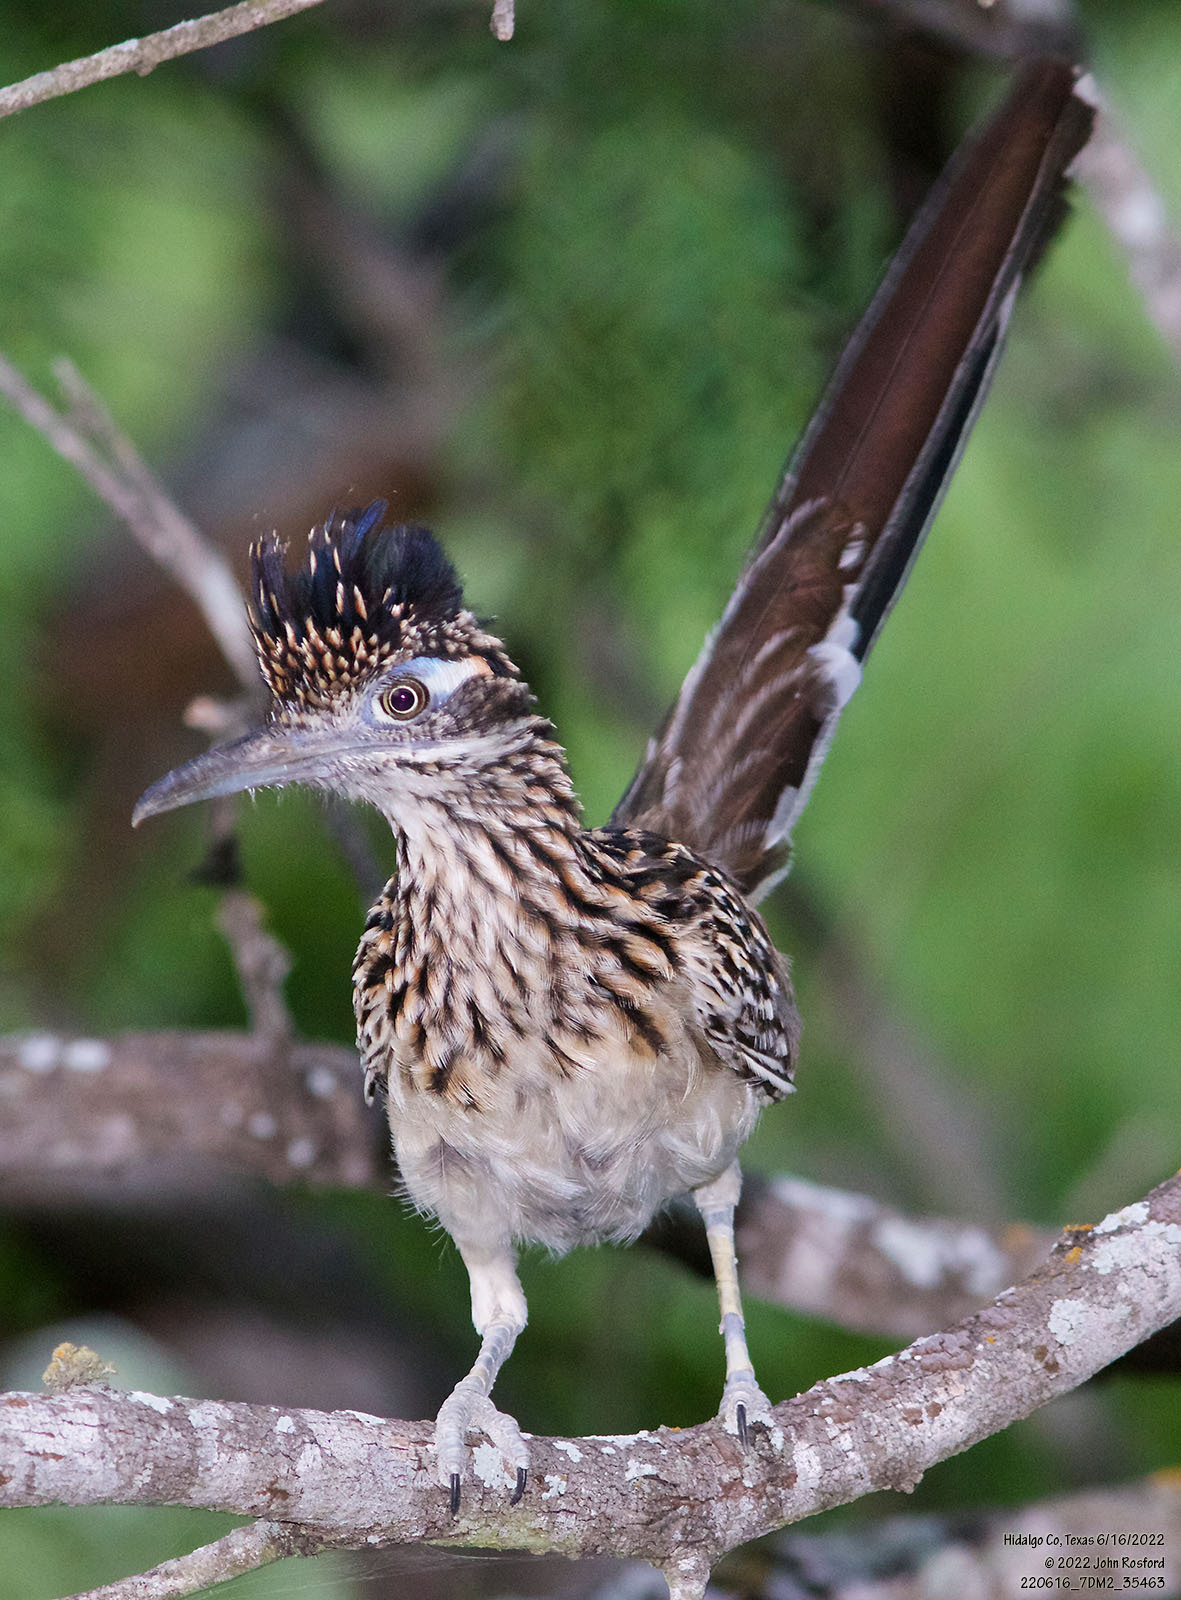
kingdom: Animalia
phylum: Chordata
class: Aves
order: Cuculiformes
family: Cuculidae
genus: Geococcyx
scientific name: Geococcyx californianus
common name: Greater roadrunner
